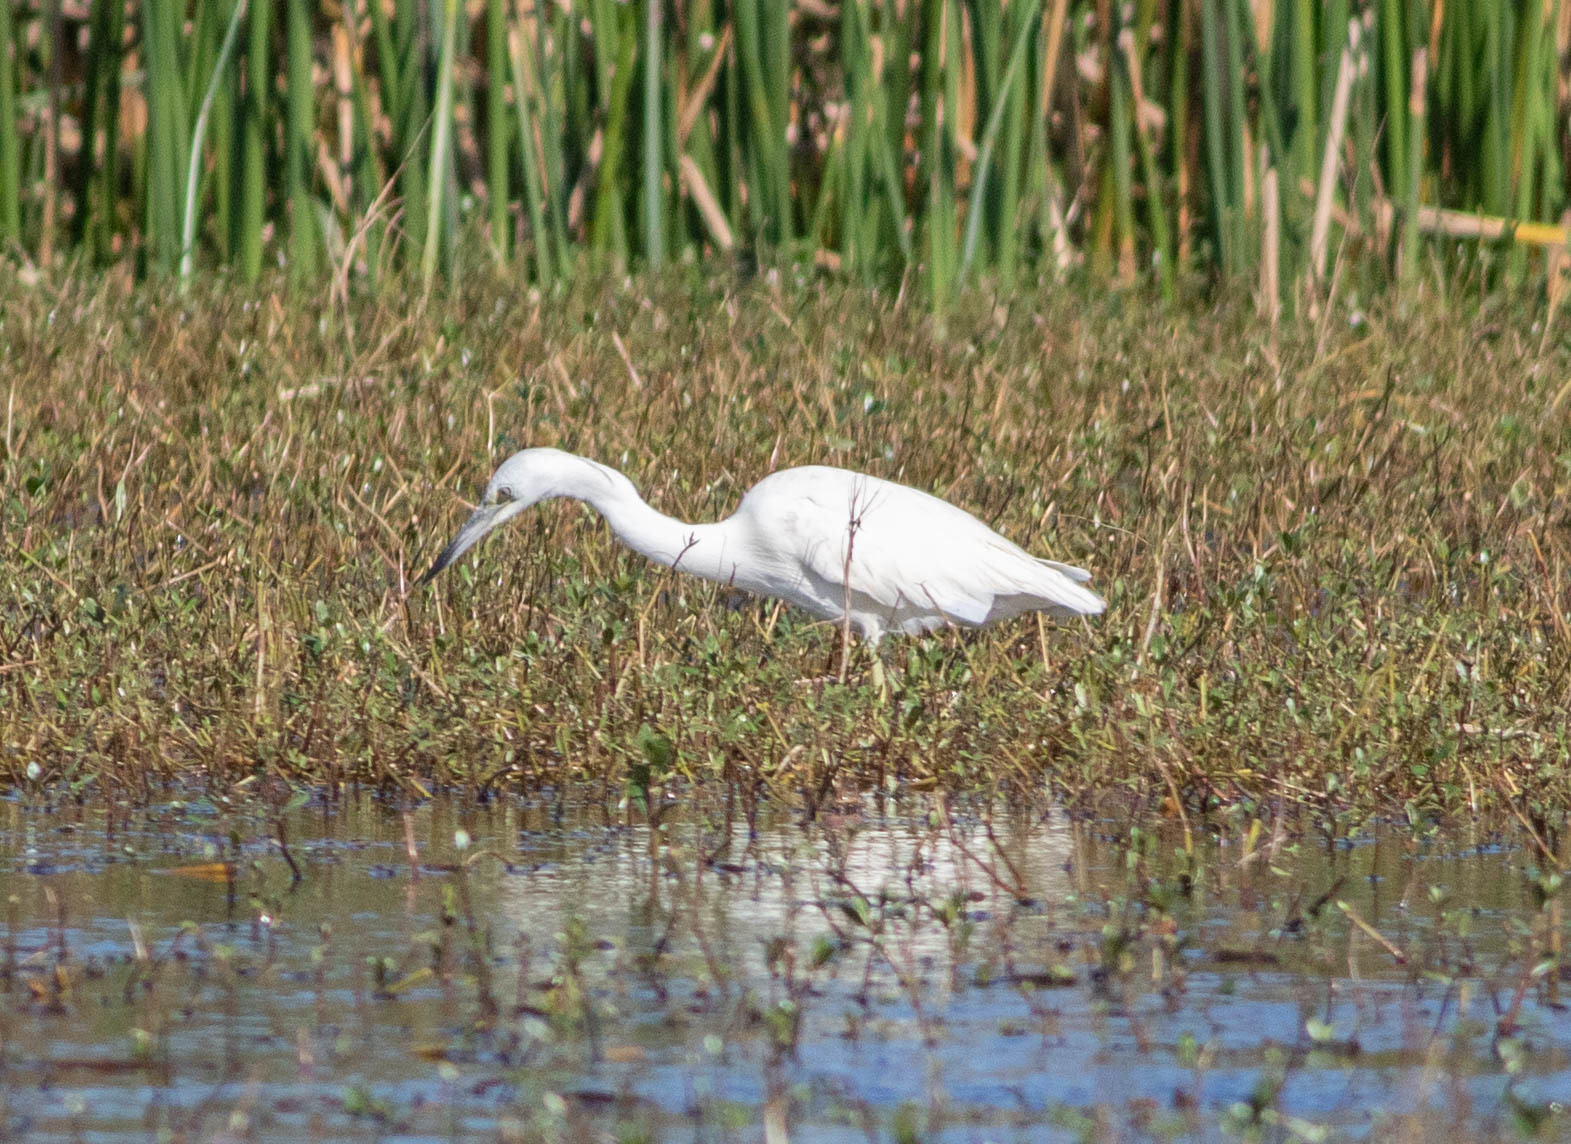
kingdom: Animalia
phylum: Chordata
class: Aves
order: Pelecaniformes
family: Ardeidae
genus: Egretta
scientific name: Egretta caerulea
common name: Little blue heron
